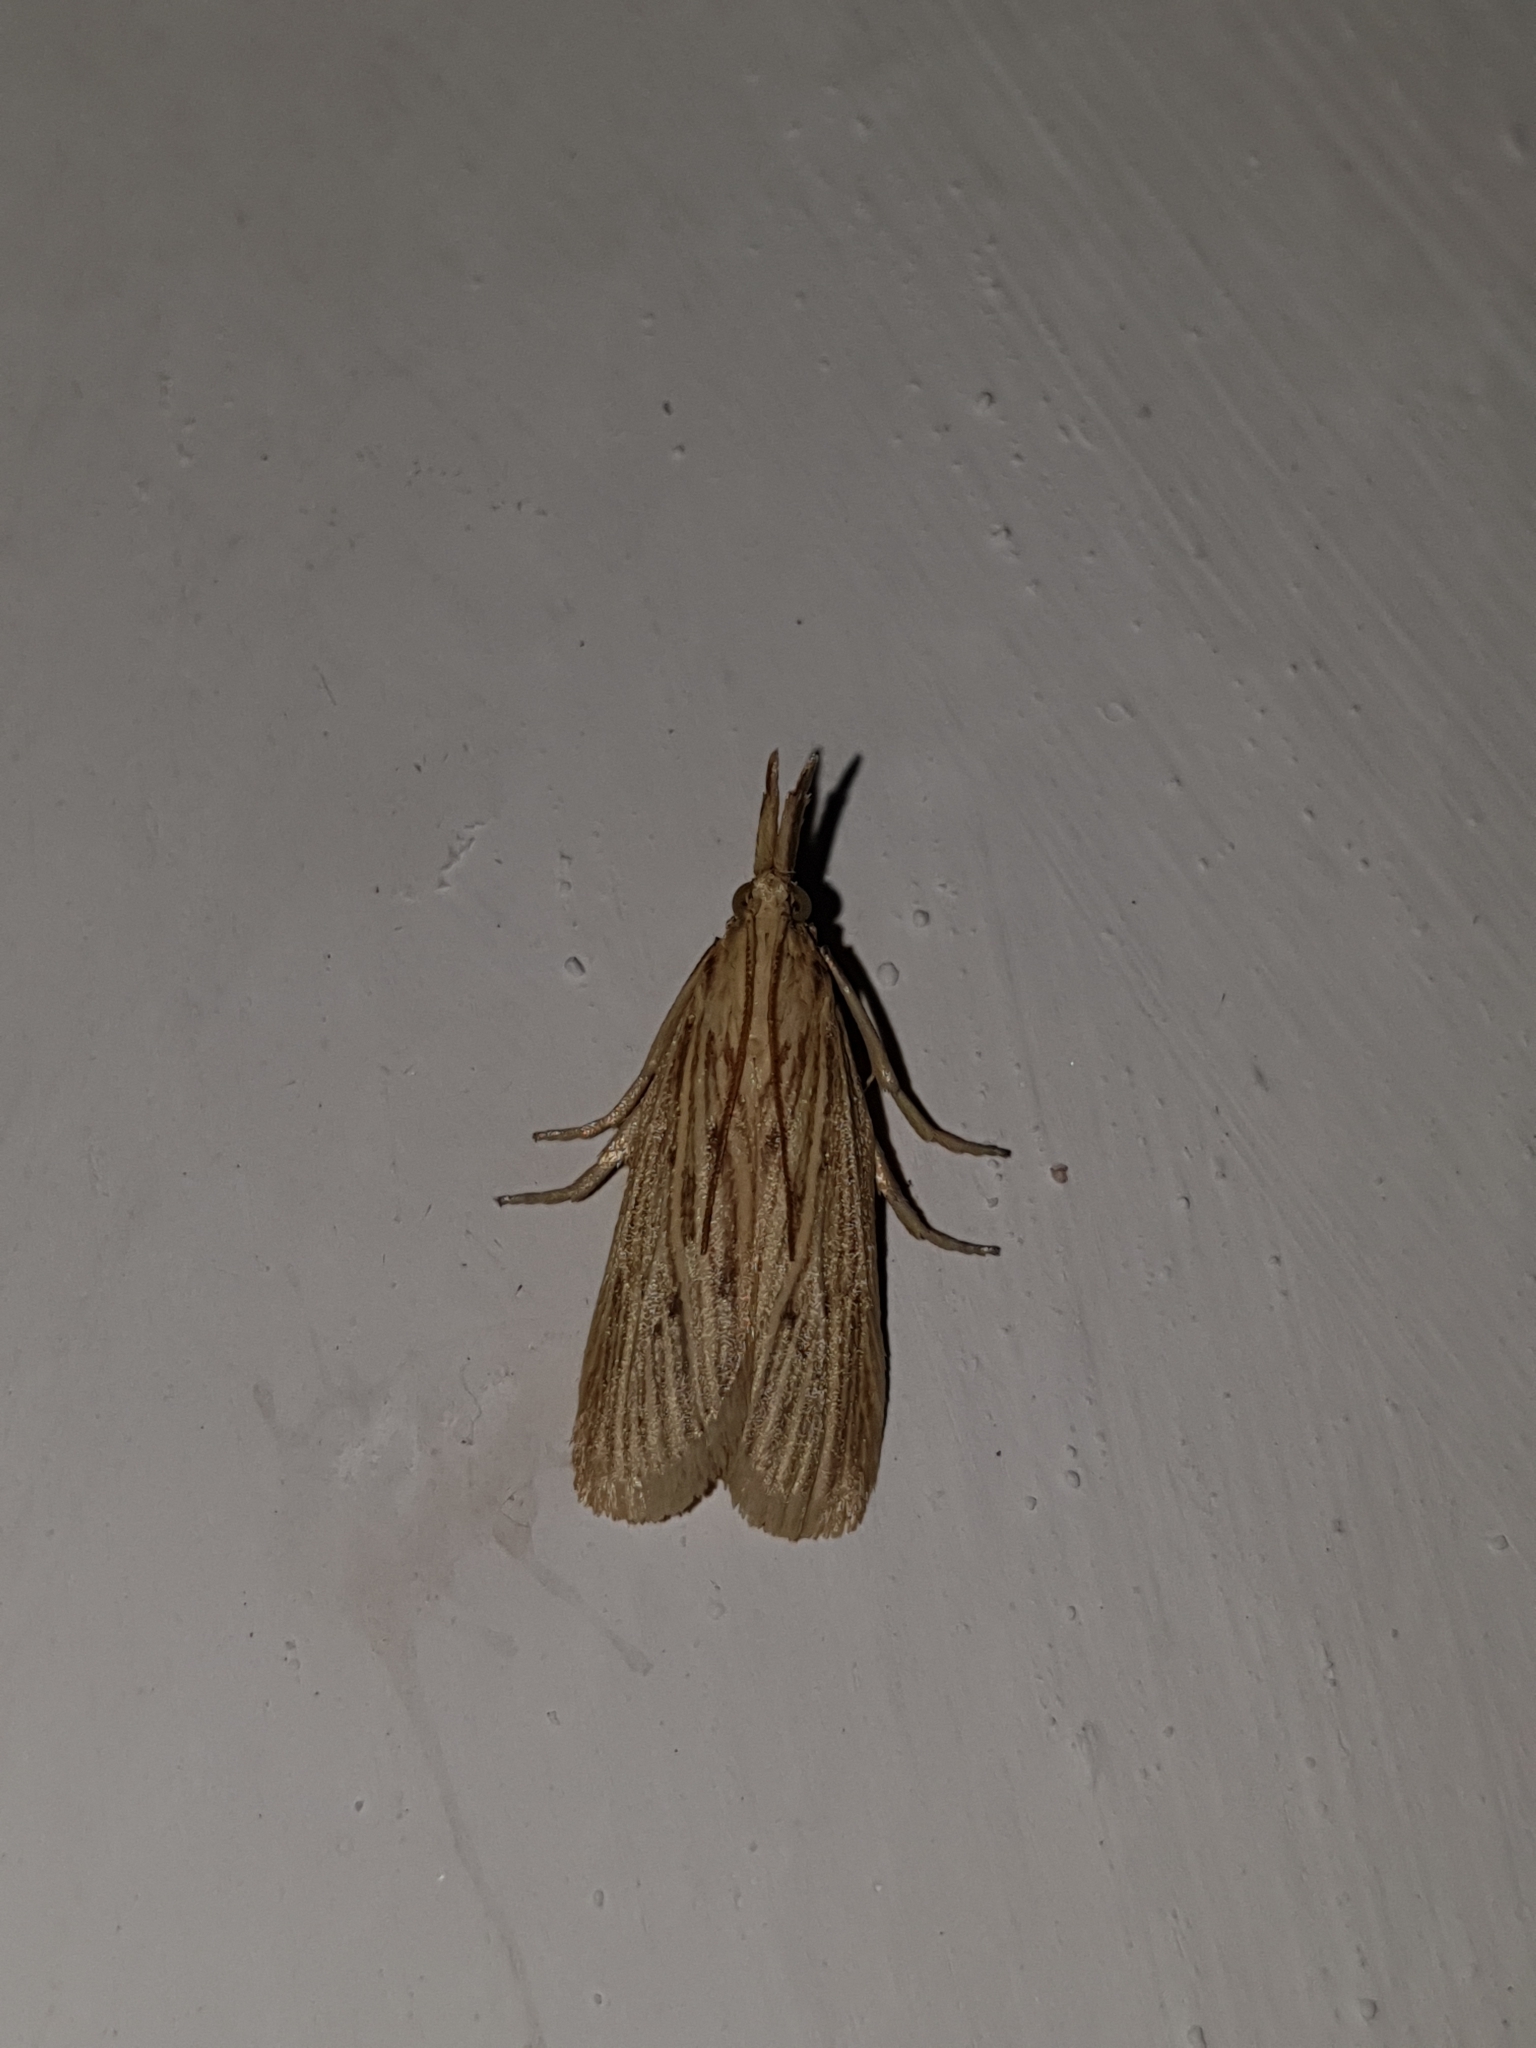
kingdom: Animalia
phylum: Arthropoda
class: Insecta
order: Lepidoptera
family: Pyralidae
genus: Ematheudes
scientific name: Ematheudes punctellus
